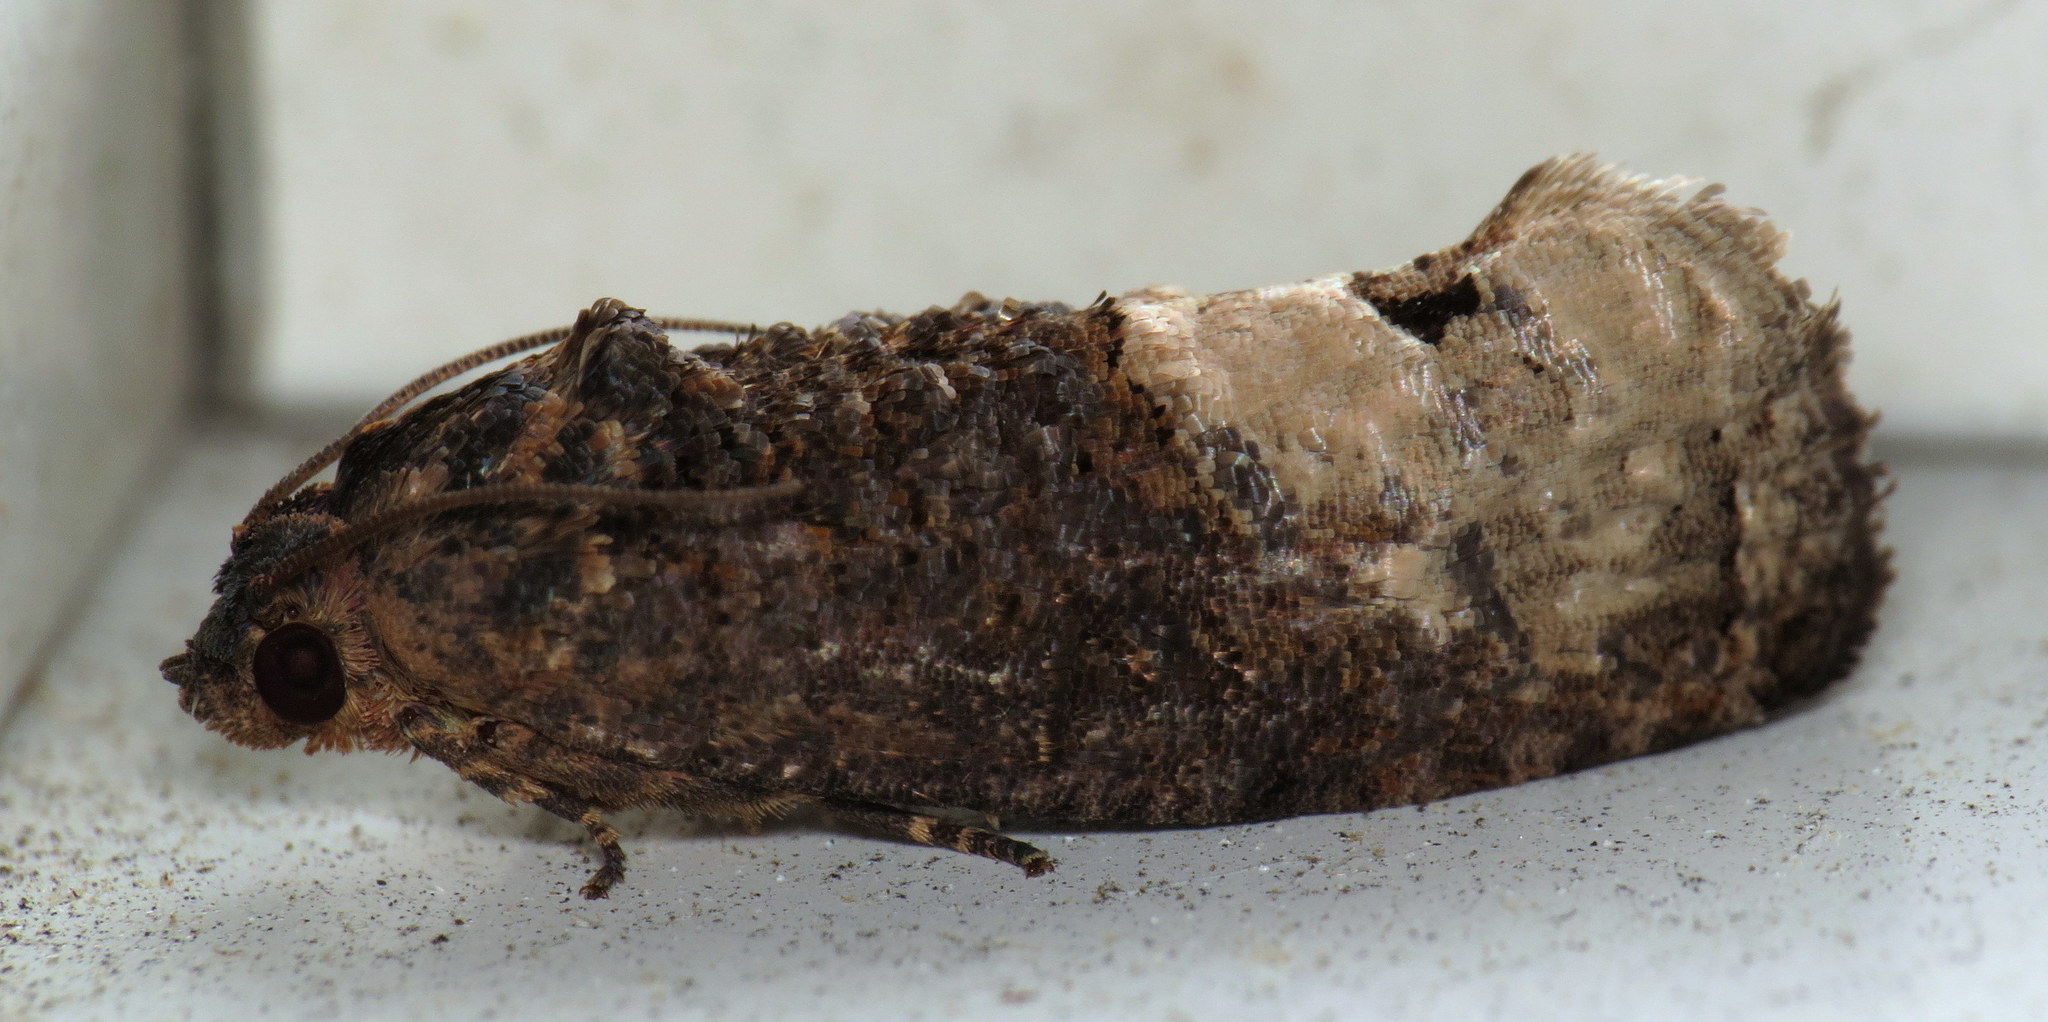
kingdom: Animalia
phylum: Arthropoda
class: Insecta
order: Lepidoptera
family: Tortricidae
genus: Ecdytolopha
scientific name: Ecdytolopha insiticiana
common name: Locust twig borer moth
